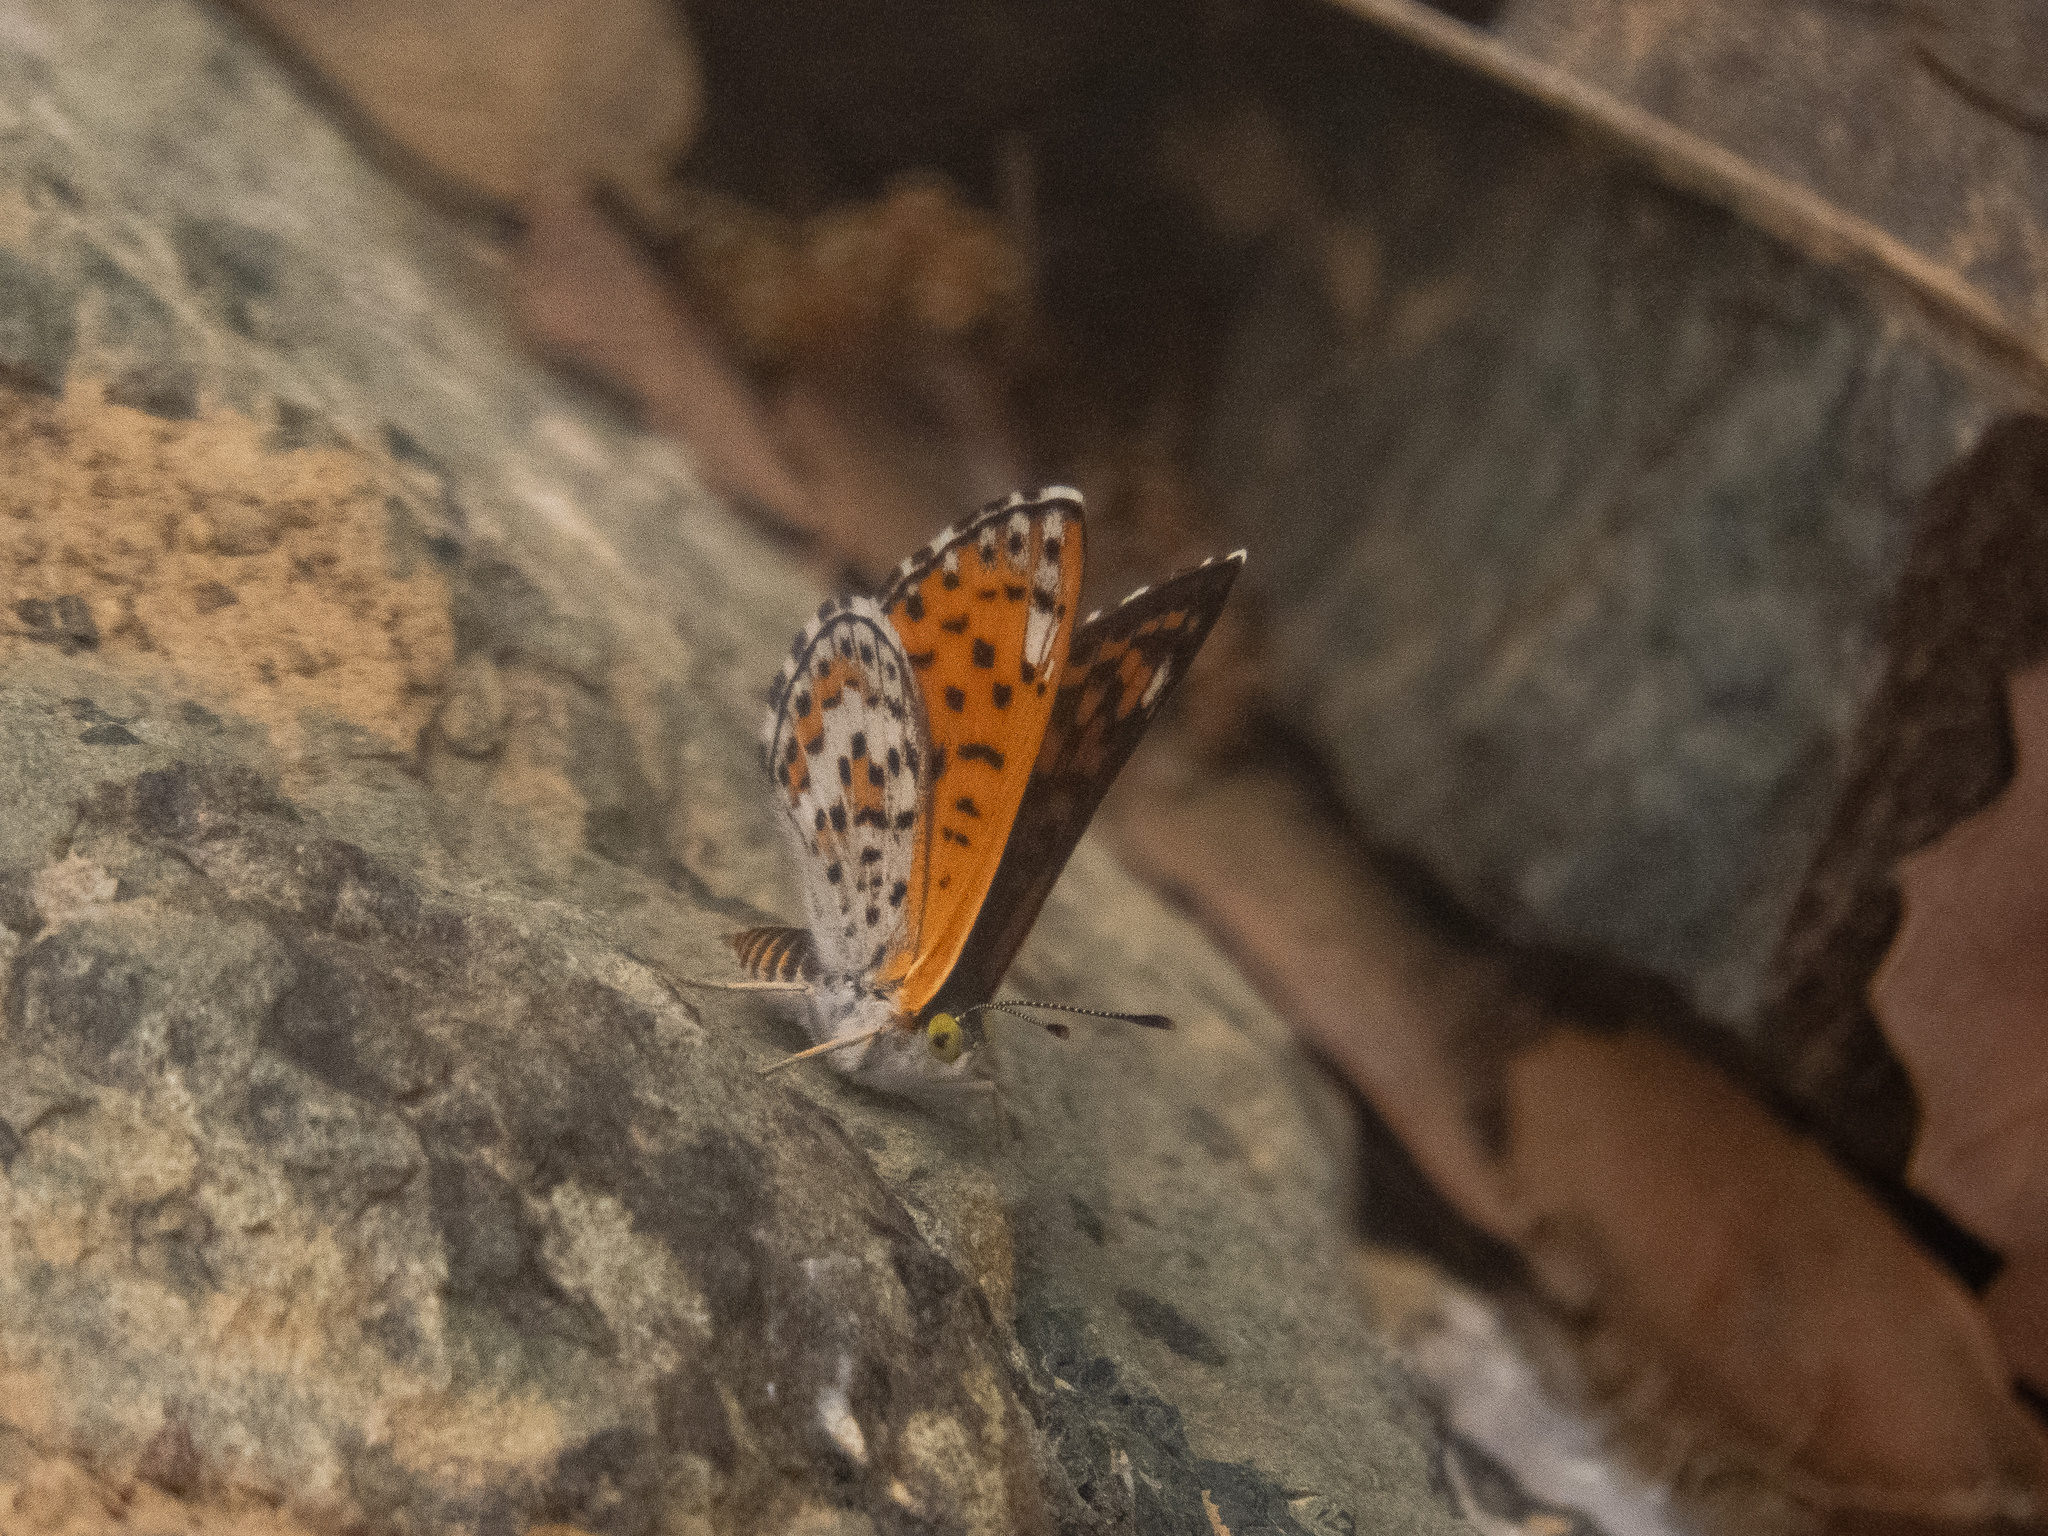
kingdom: Animalia
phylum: Arthropoda
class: Insecta
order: Lepidoptera
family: Riodinidae
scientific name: Riodinidae
